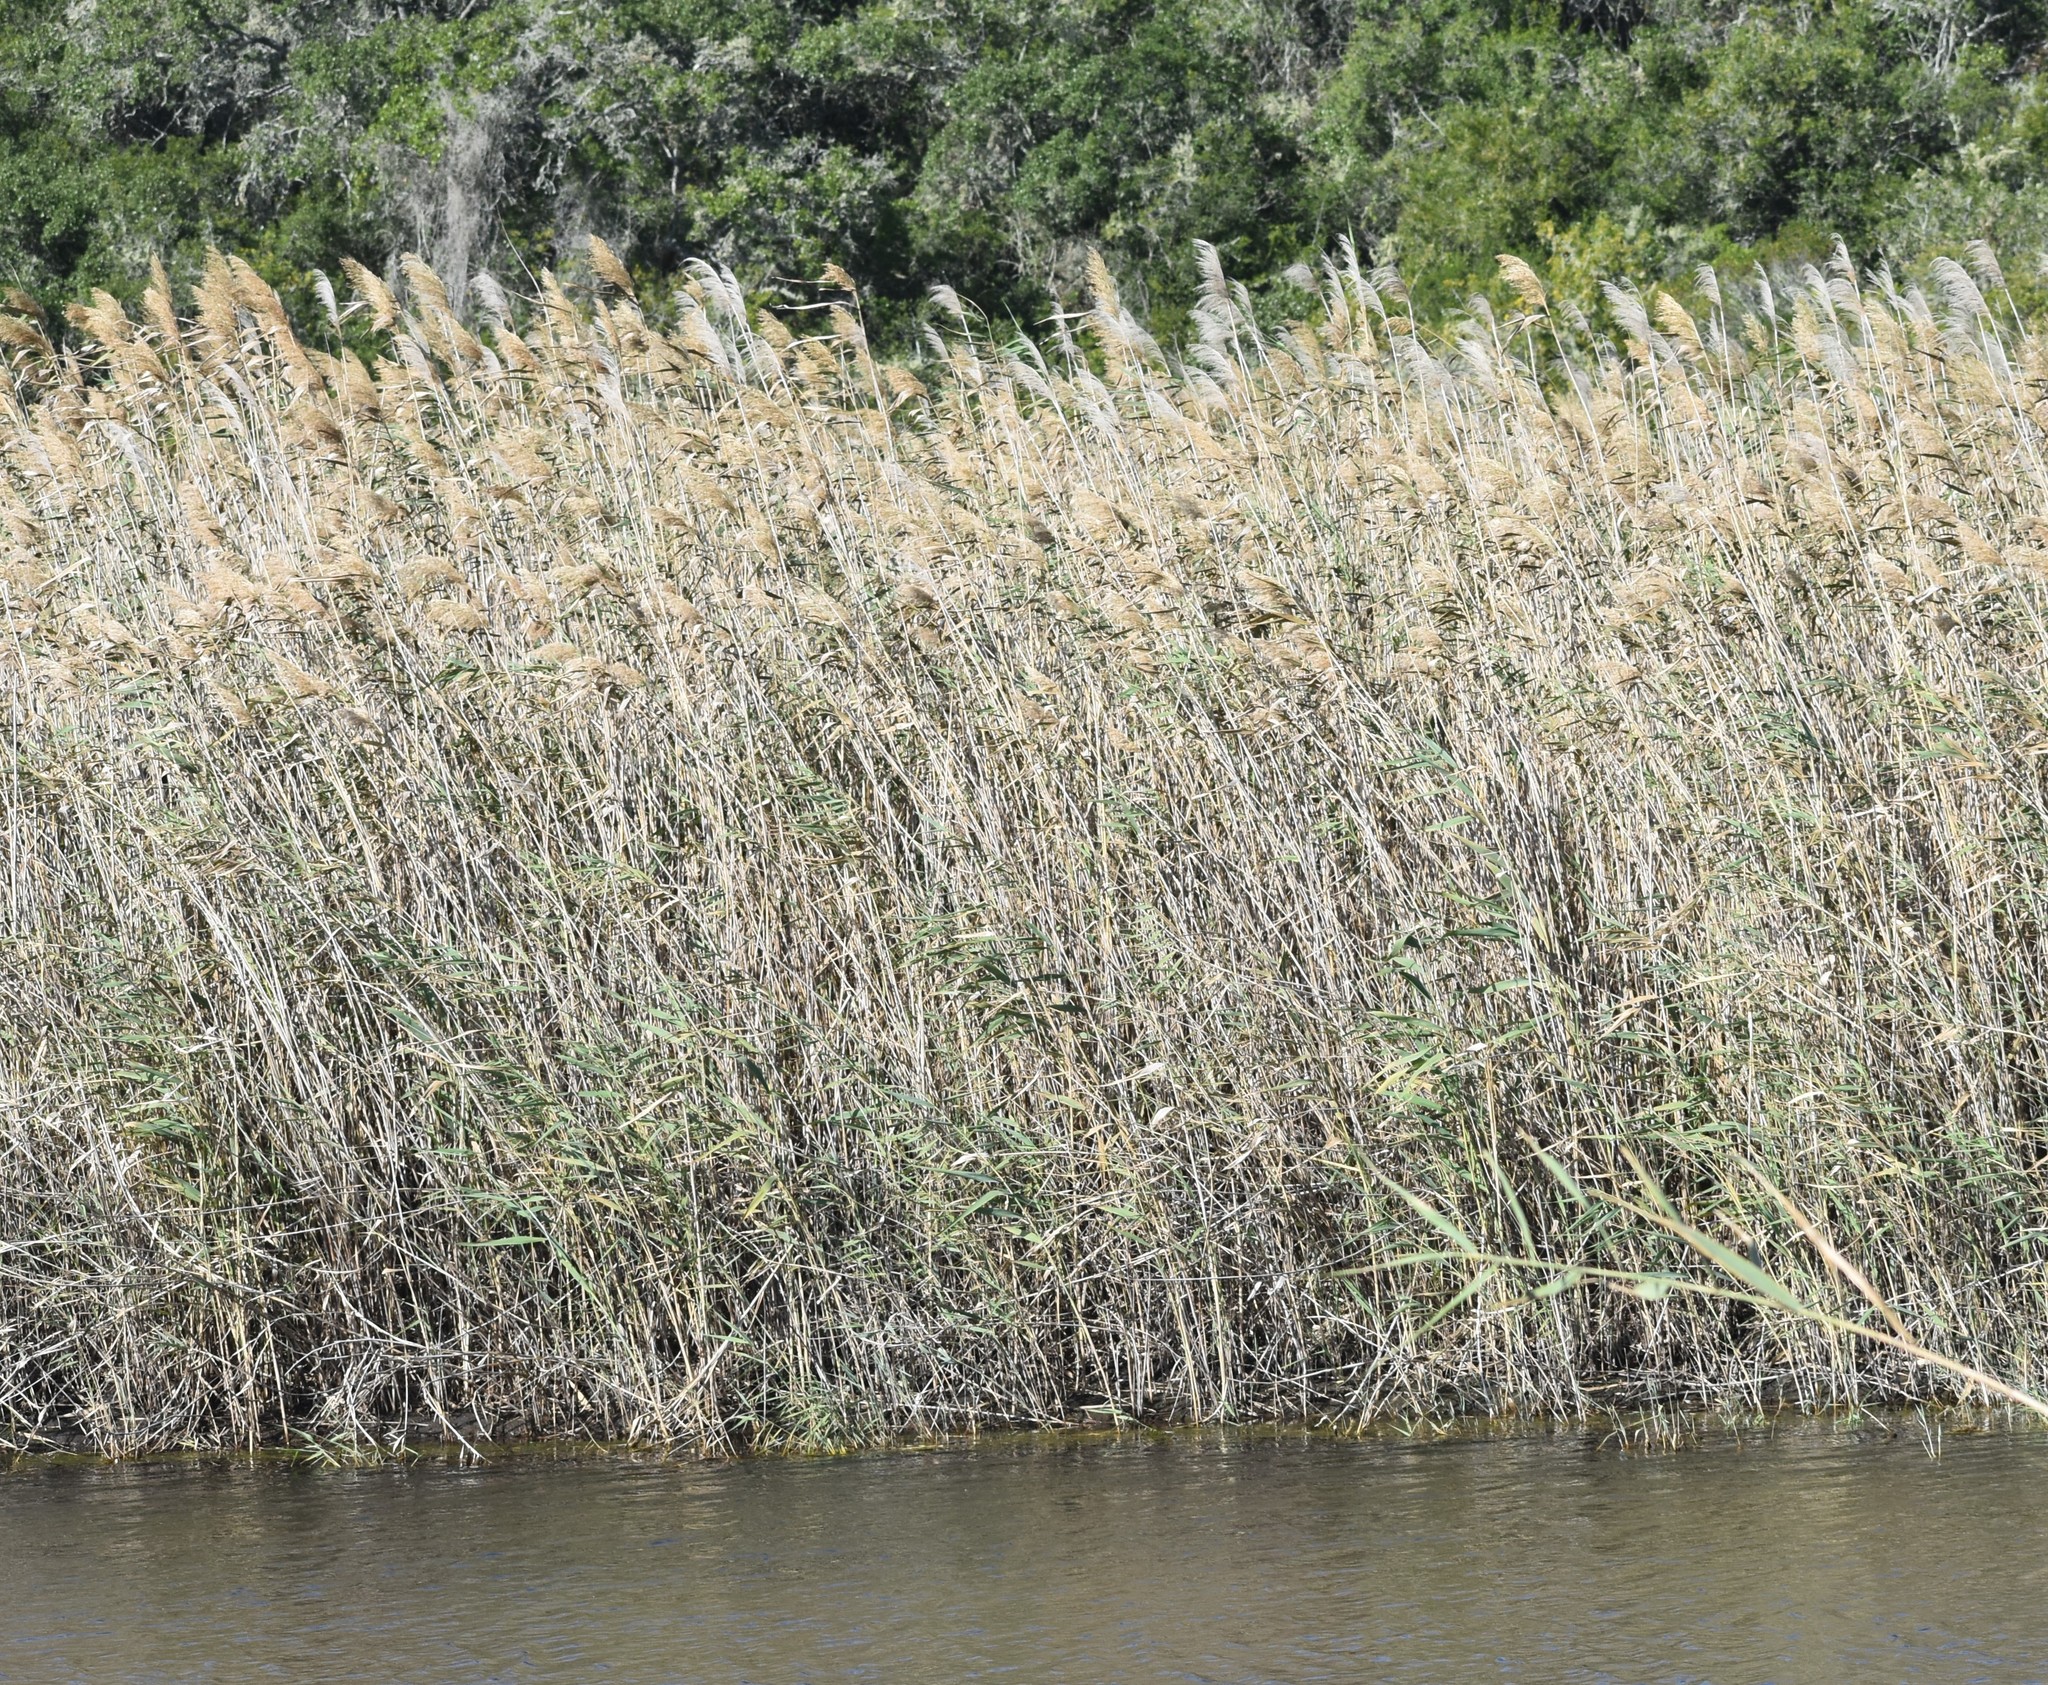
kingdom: Plantae
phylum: Tracheophyta
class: Liliopsida
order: Poales
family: Poaceae
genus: Phragmites
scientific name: Phragmites australis
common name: Common reed
